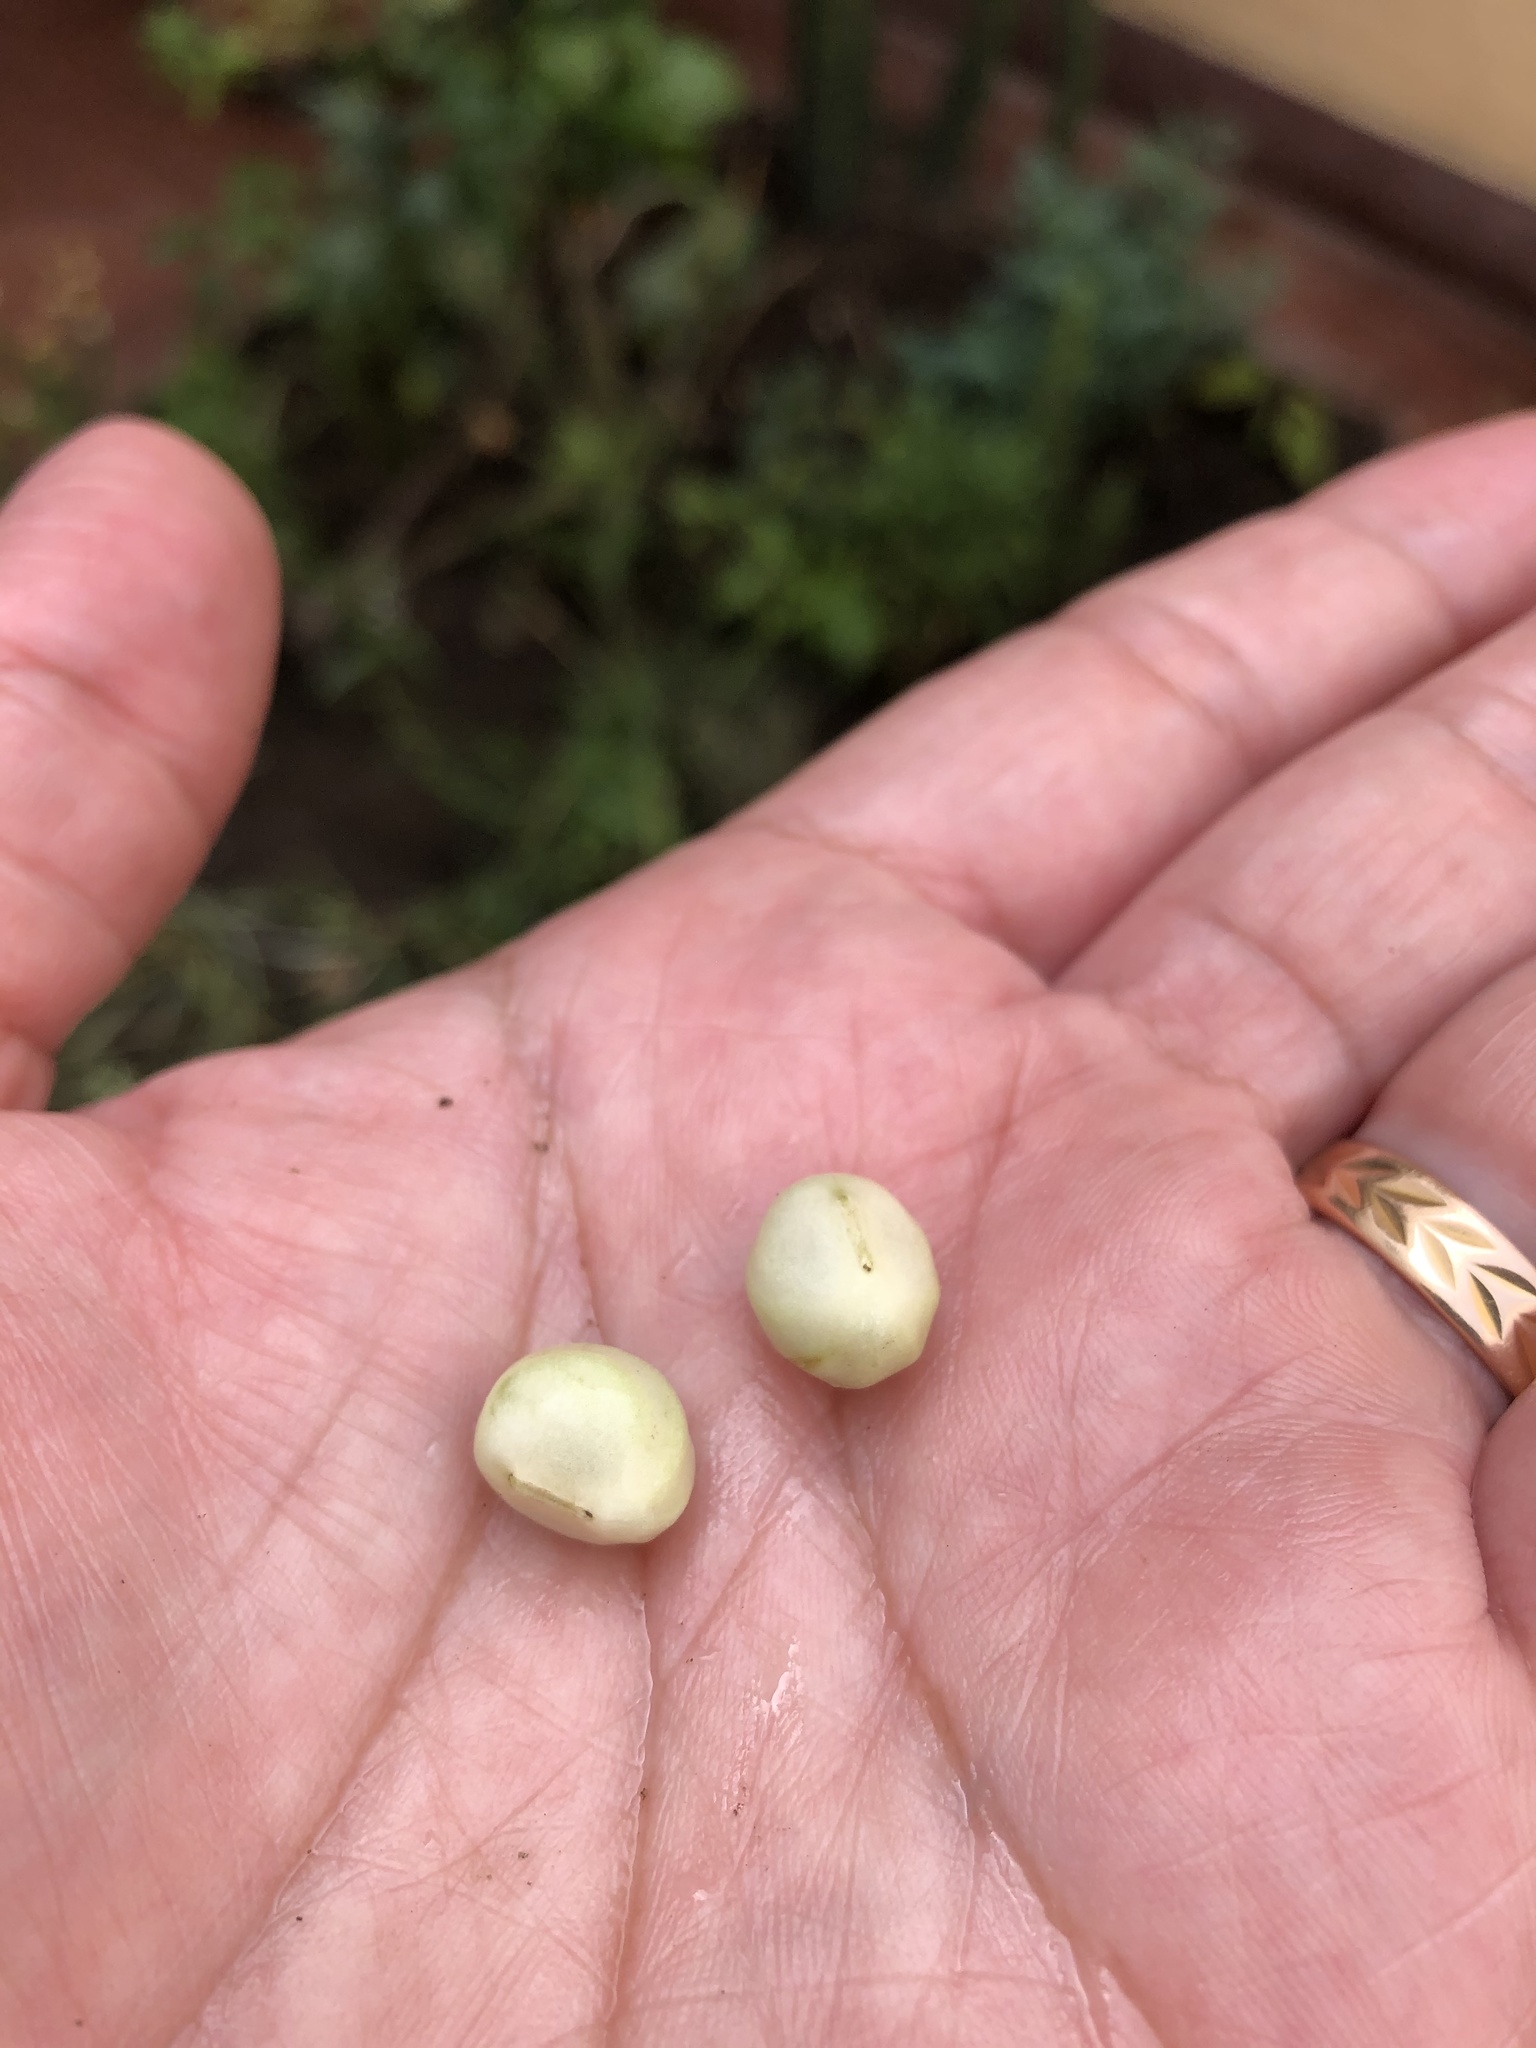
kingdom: Plantae
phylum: Tracheophyta
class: Magnoliopsida
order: Brassicales
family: Tropaeolaceae
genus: Tropaeolum
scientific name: Tropaeolum majus
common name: Nasturtium
